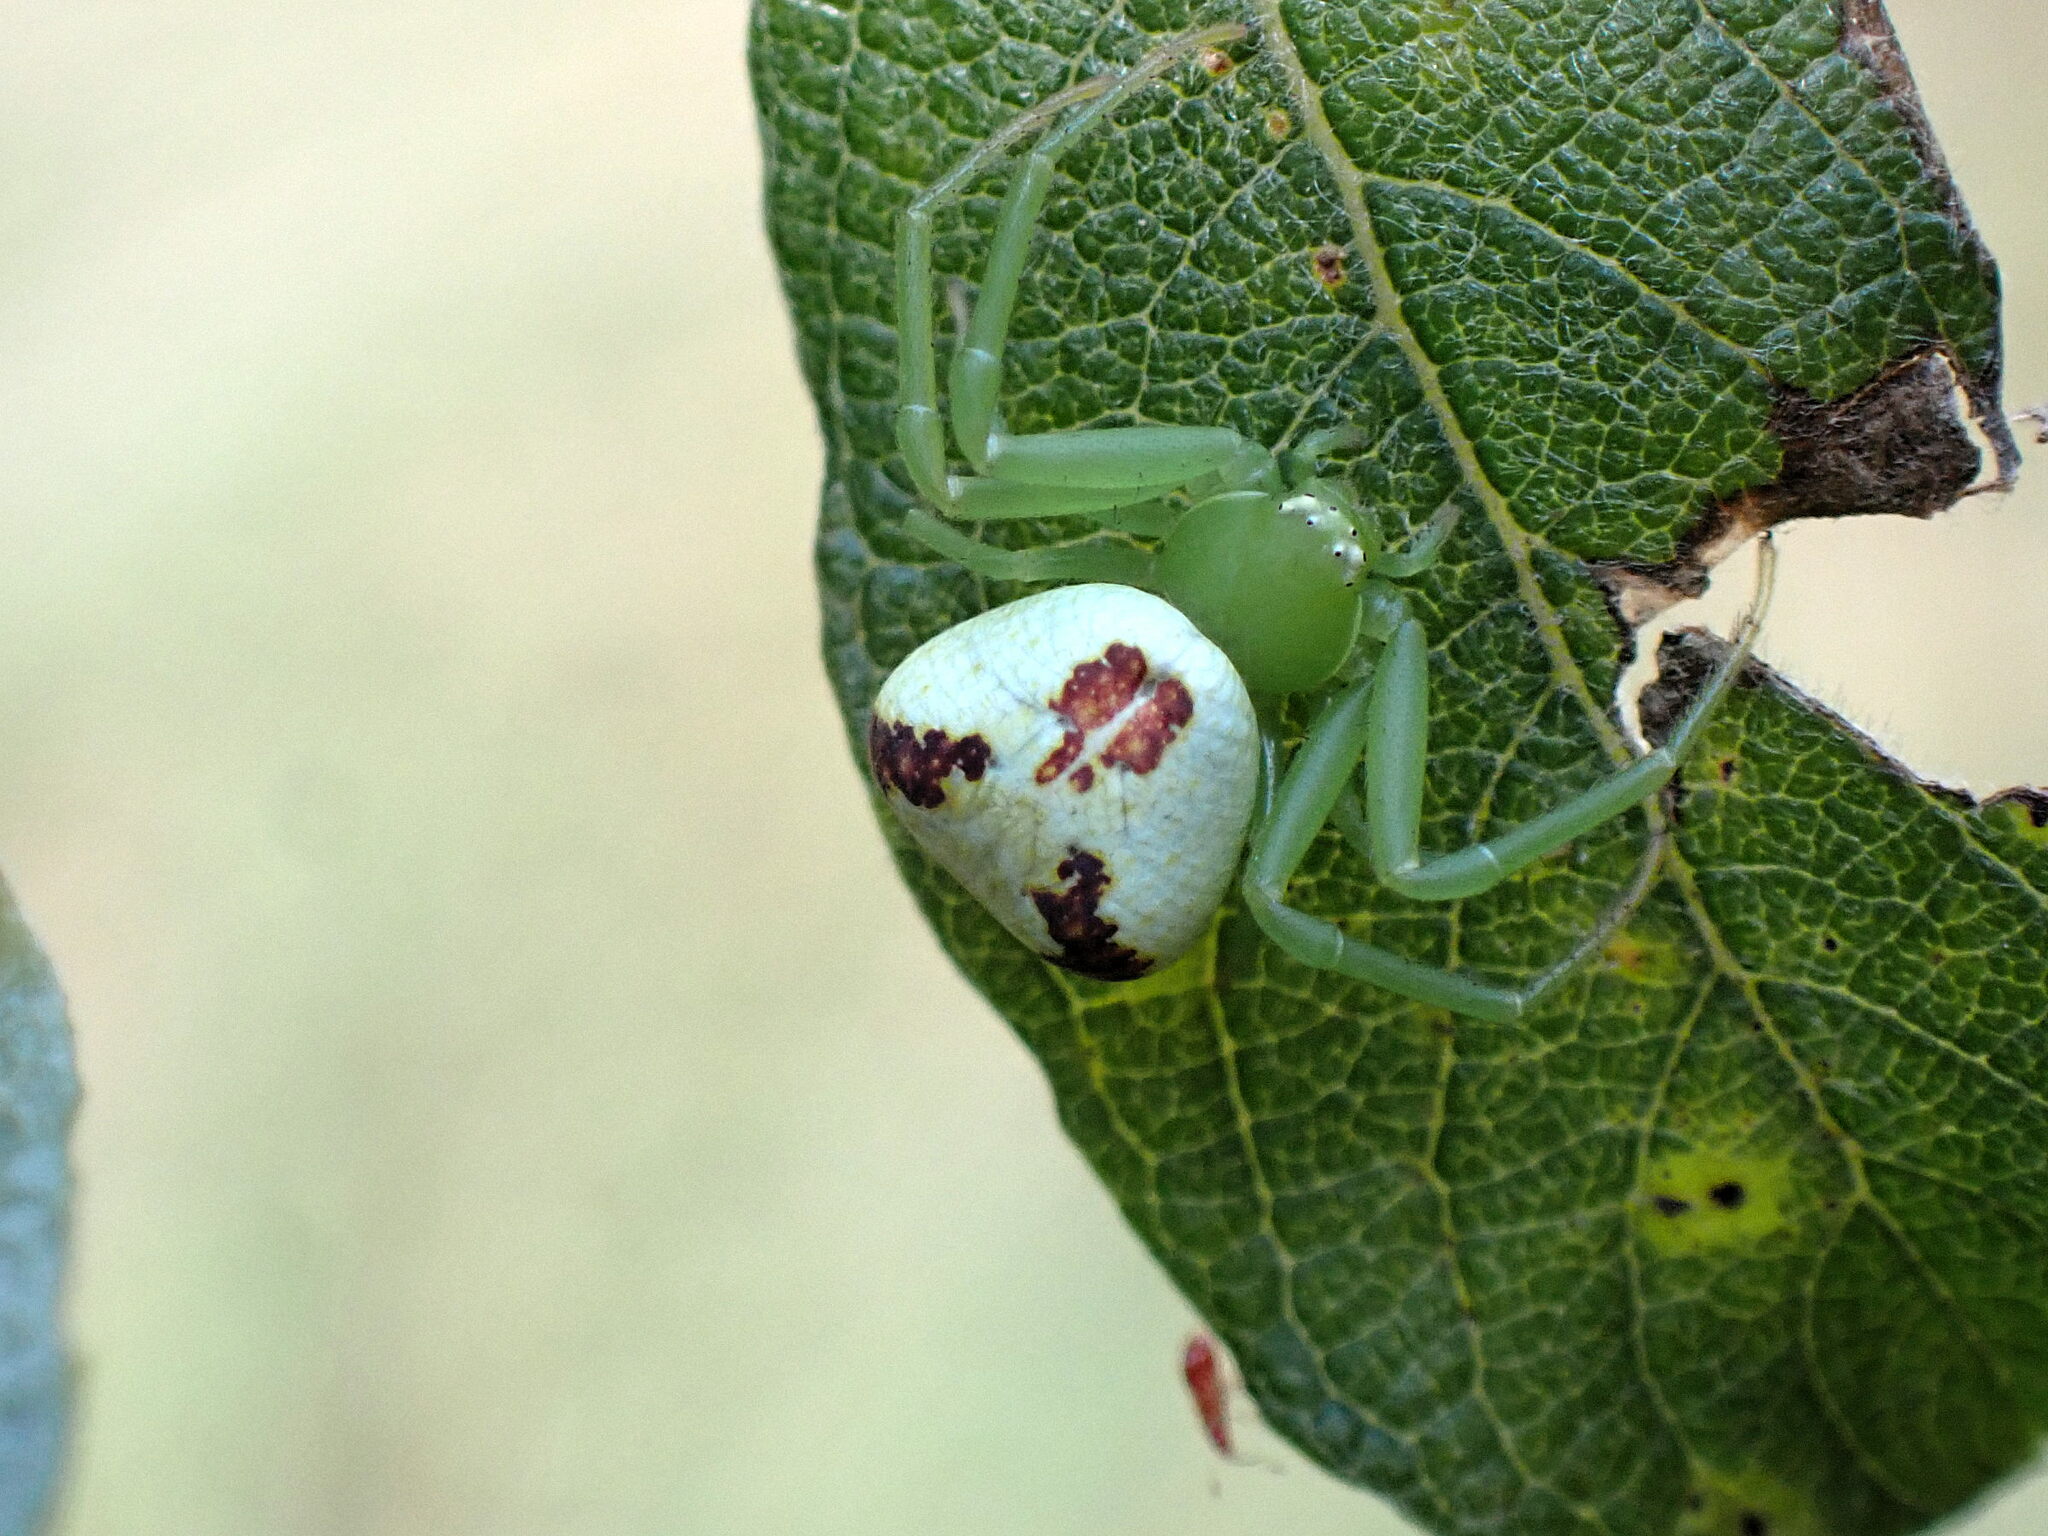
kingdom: Animalia
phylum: Arthropoda
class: Arachnida
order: Araneae
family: Thomisidae
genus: Ebrechtella
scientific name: Ebrechtella tricuspidata
